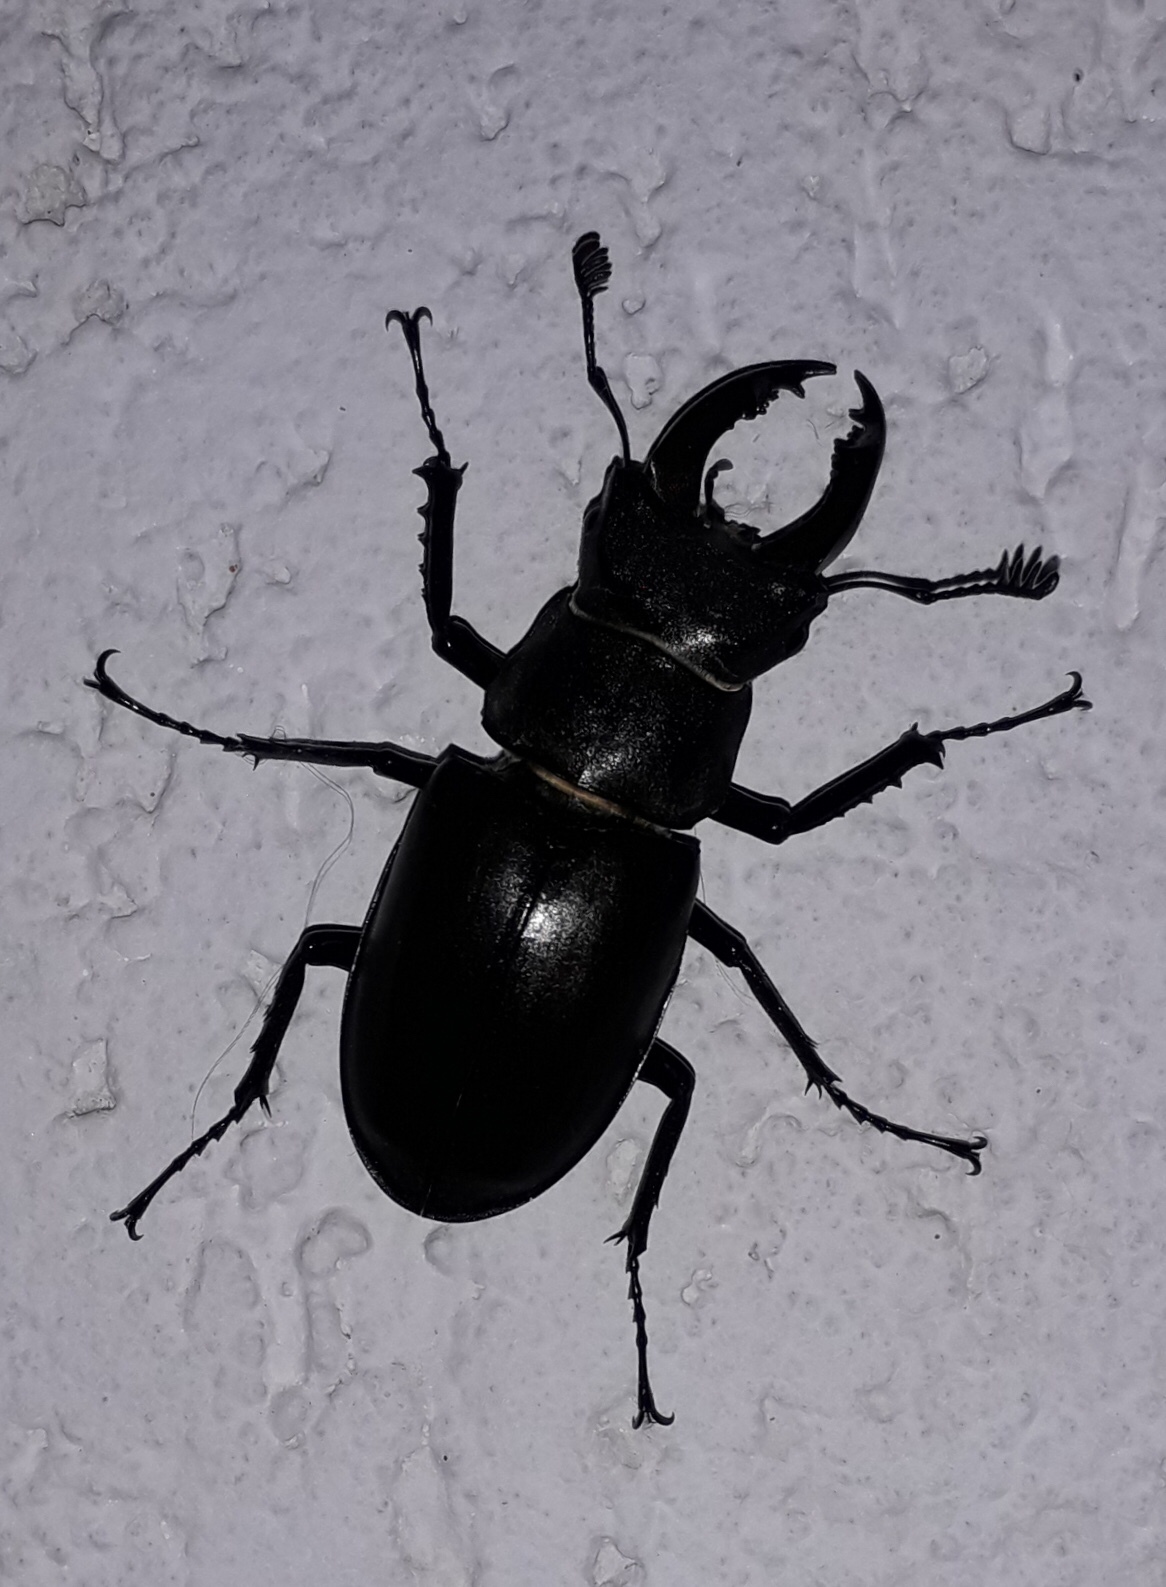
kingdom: Animalia
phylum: Arthropoda
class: Insecta
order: Coleoptera
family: Lucanidae
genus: Lucanus
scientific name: Lucanus cervus
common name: Stag beetle
